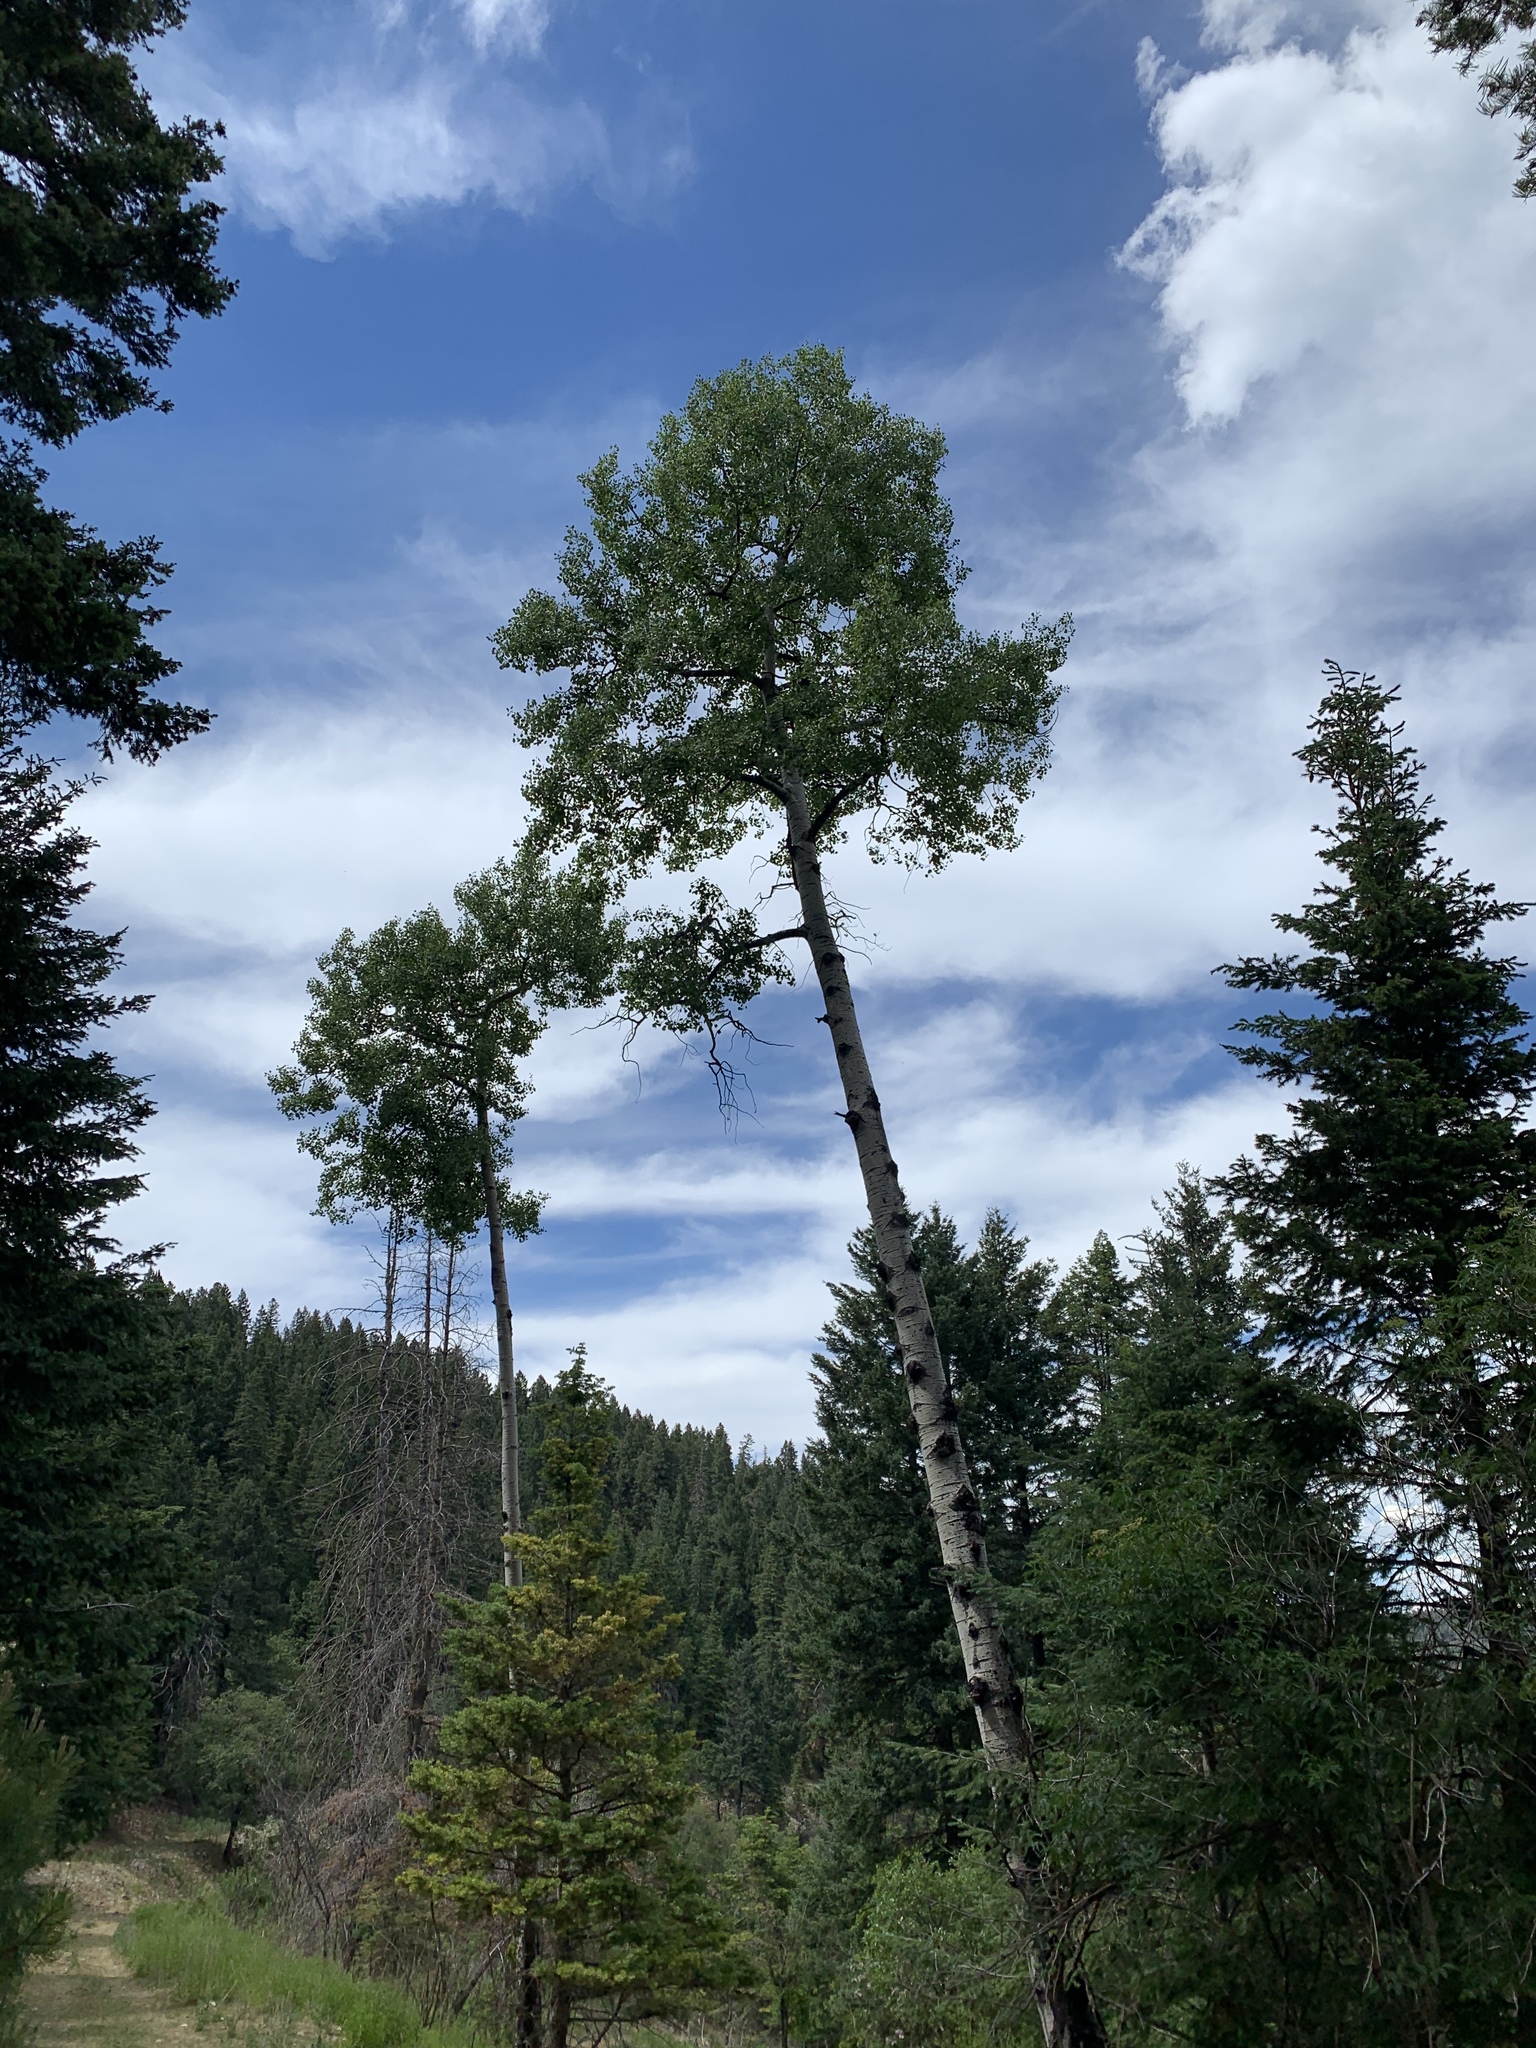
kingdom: Plantae
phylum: Tracheophyta
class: Magnoliopsida
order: Malpighiales
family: Salicaceae
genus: Populus
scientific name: Populus tremuloides
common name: Quaking aspen
